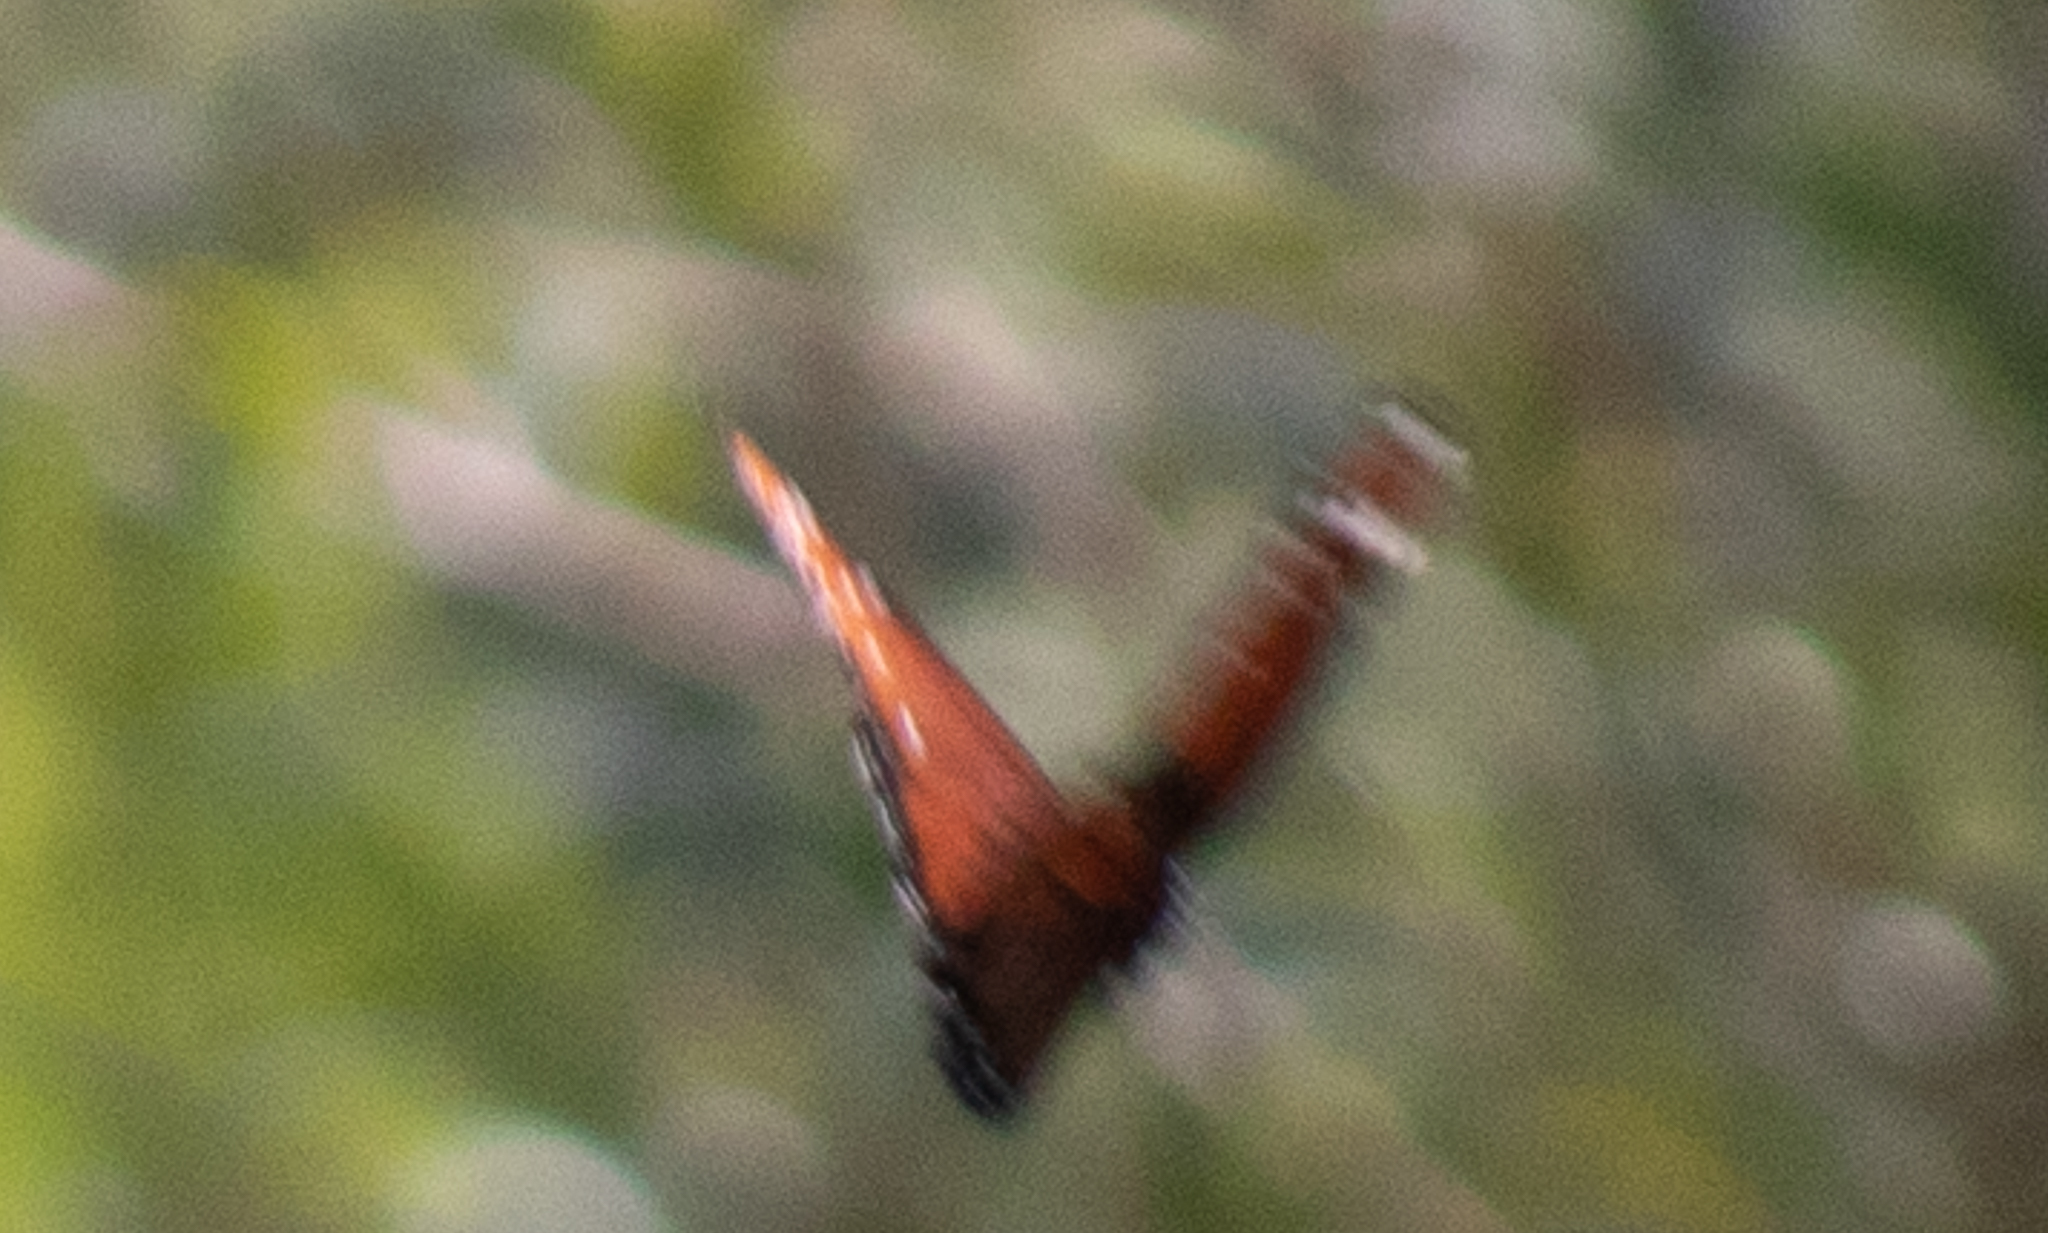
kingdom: Animalia
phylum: Arthropoda
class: Insecta
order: Lepidoptera
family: Nymphalidae
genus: Danaus
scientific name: Danaus gilippus
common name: Queen
